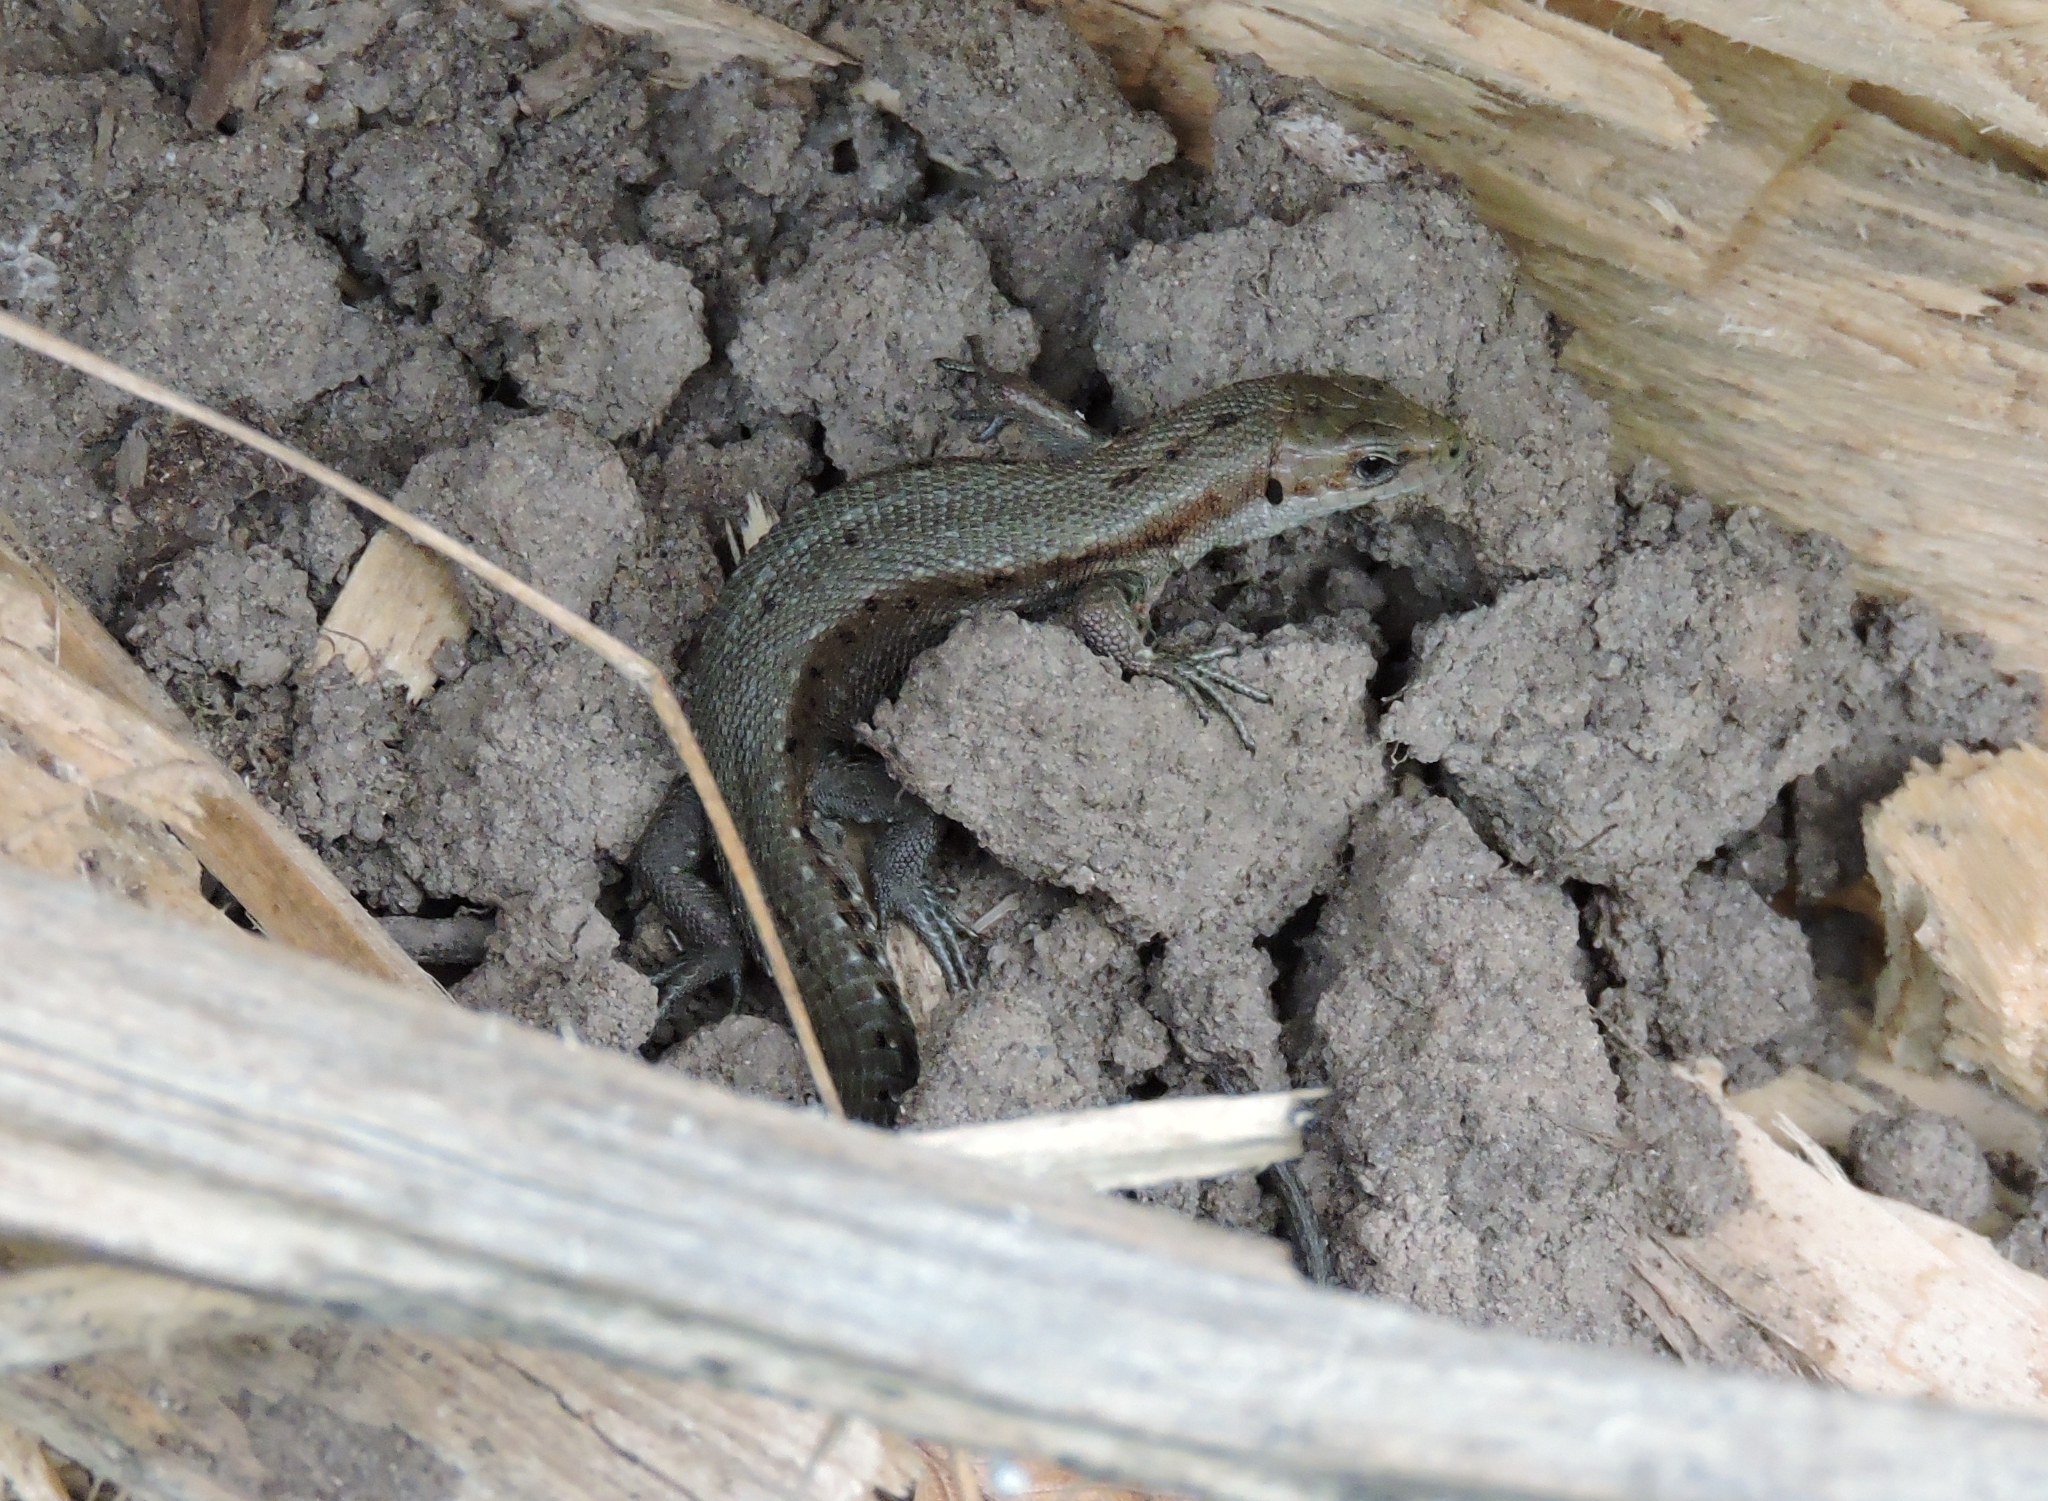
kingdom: Animalia
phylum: Chordata
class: Squamata
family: Lacertidae
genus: Zootoca
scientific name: Zootoca vivipara
